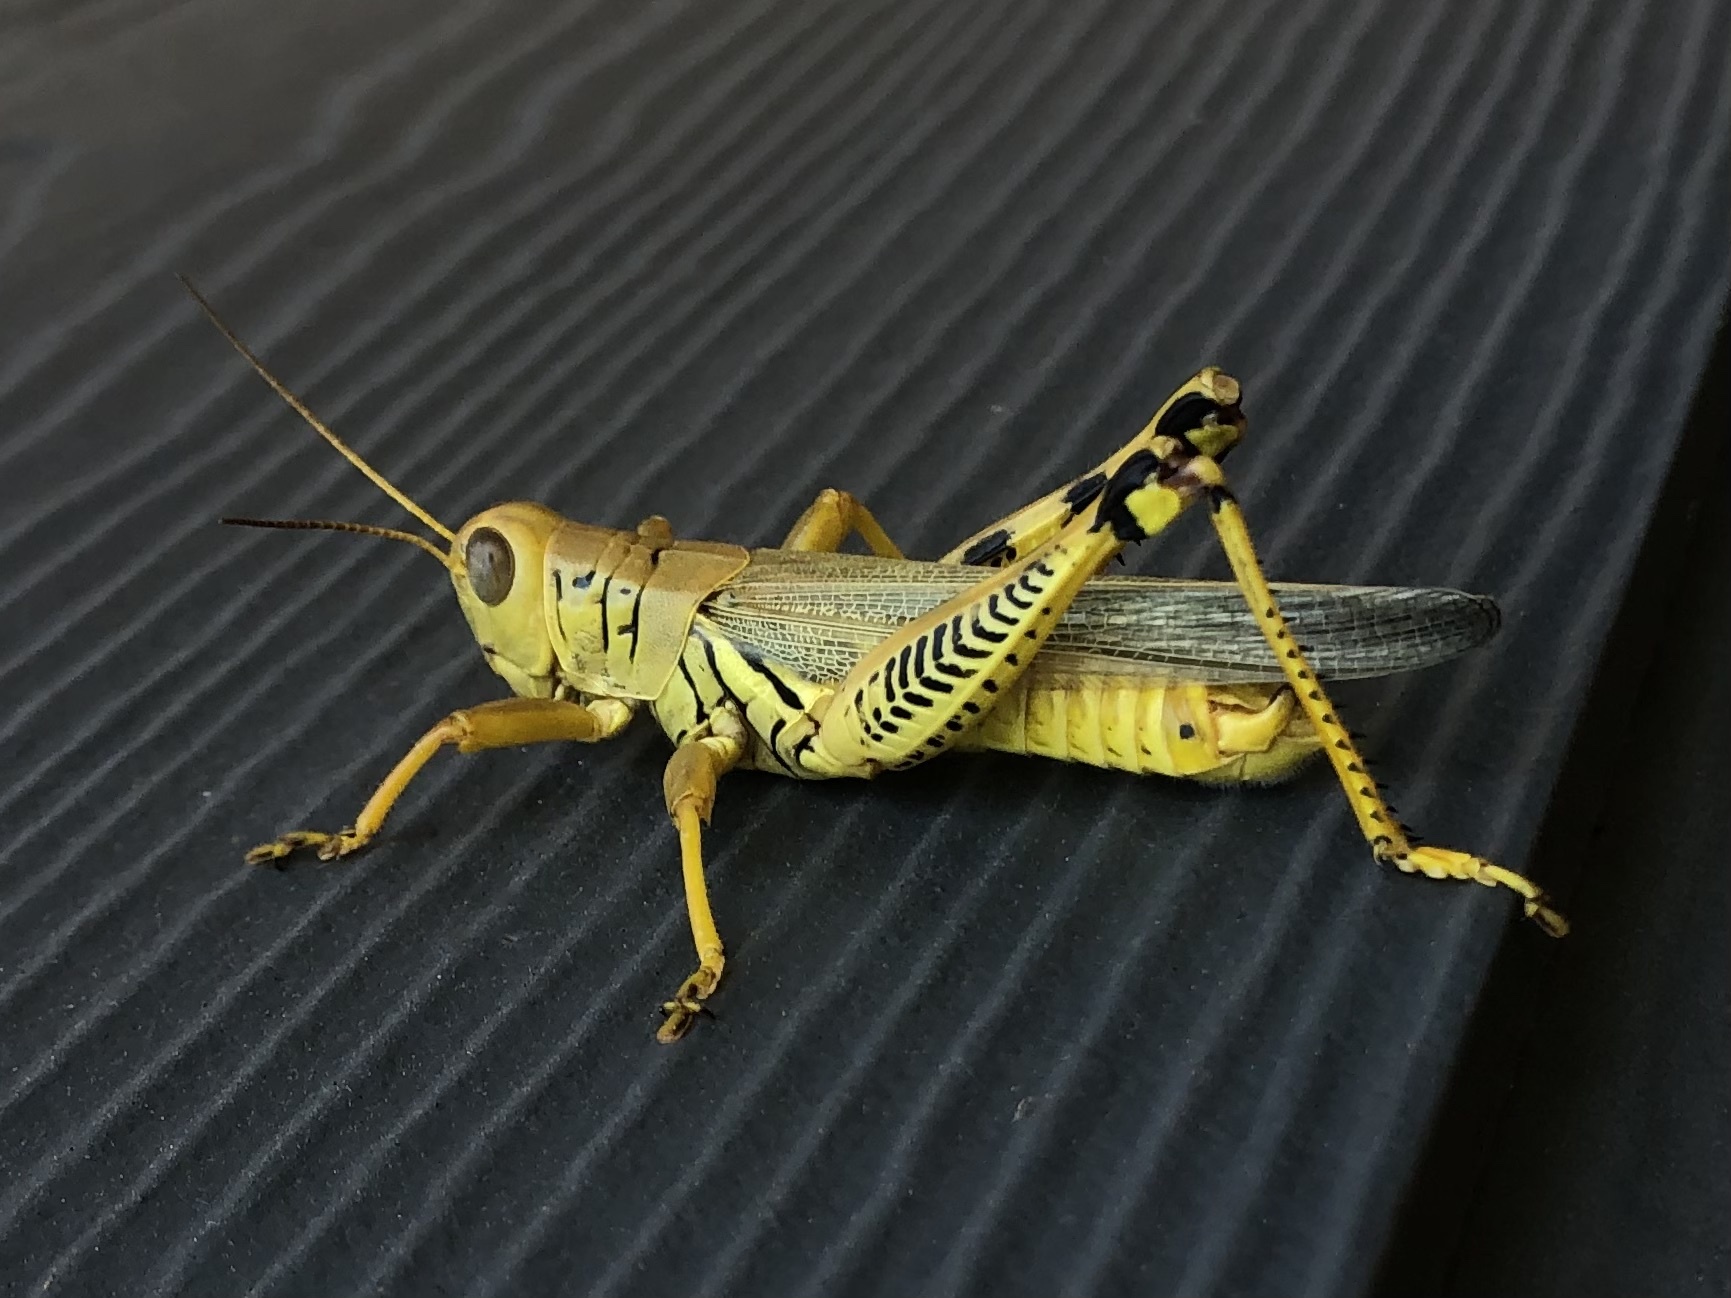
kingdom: Animalia
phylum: Arthropoda
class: Insecta
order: Orthoptera
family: Acrididae
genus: Melanoplus
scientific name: Melanoplus differentialis
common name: Differential grasshopper
